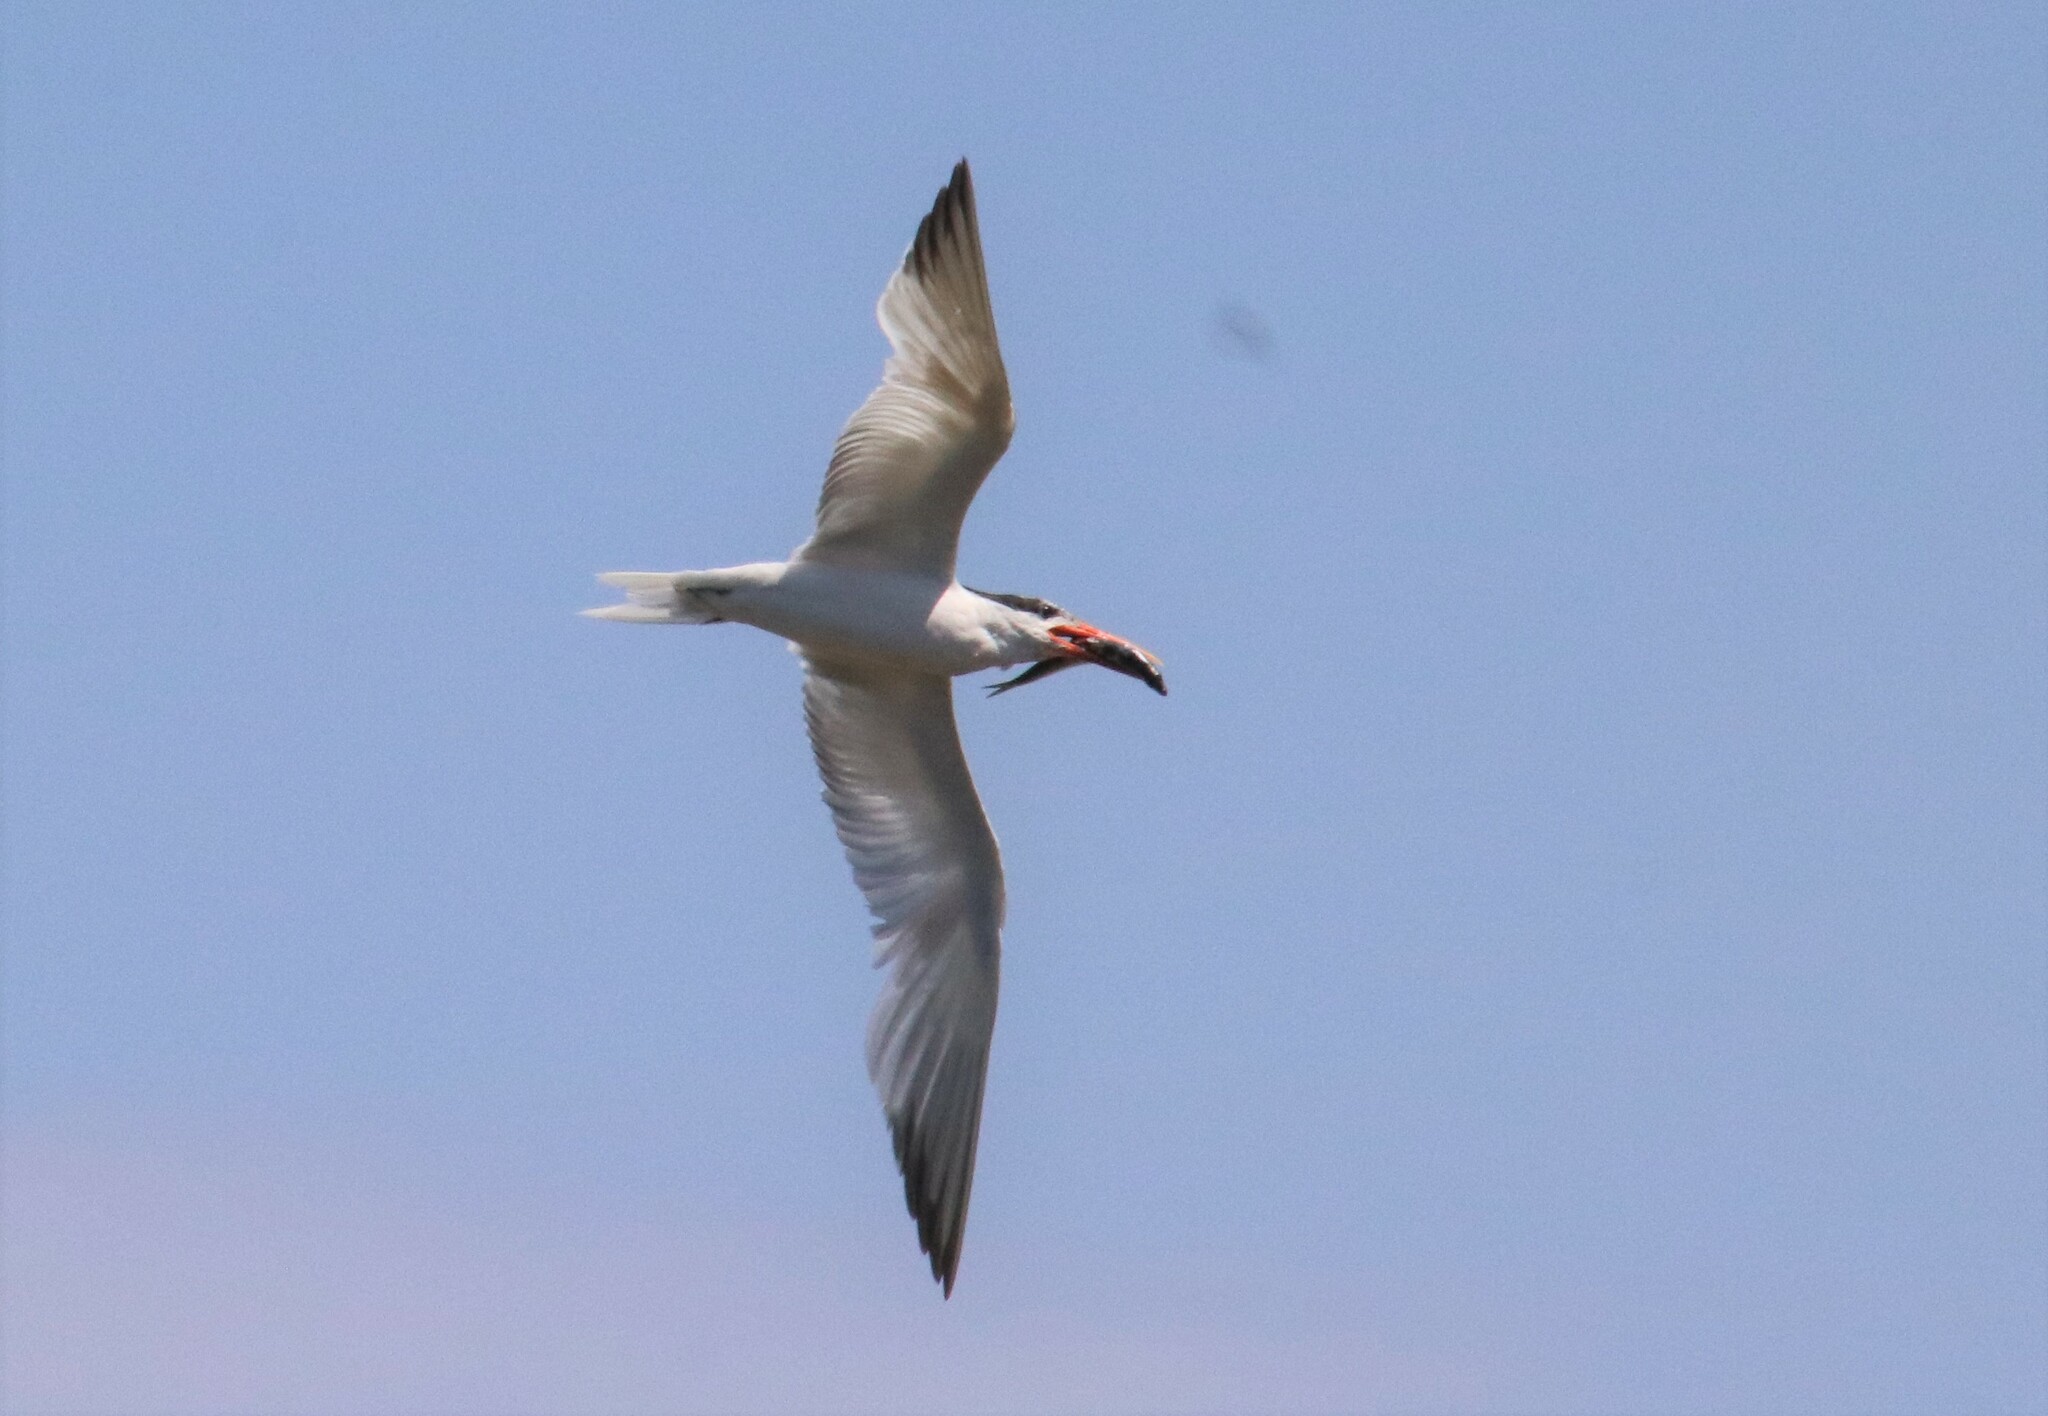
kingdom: Animalia
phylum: Chordata
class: Aves
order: Charadriiformes
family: Laridae
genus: Thalasseus
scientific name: Thalasseus elegans
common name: Elegant tern
